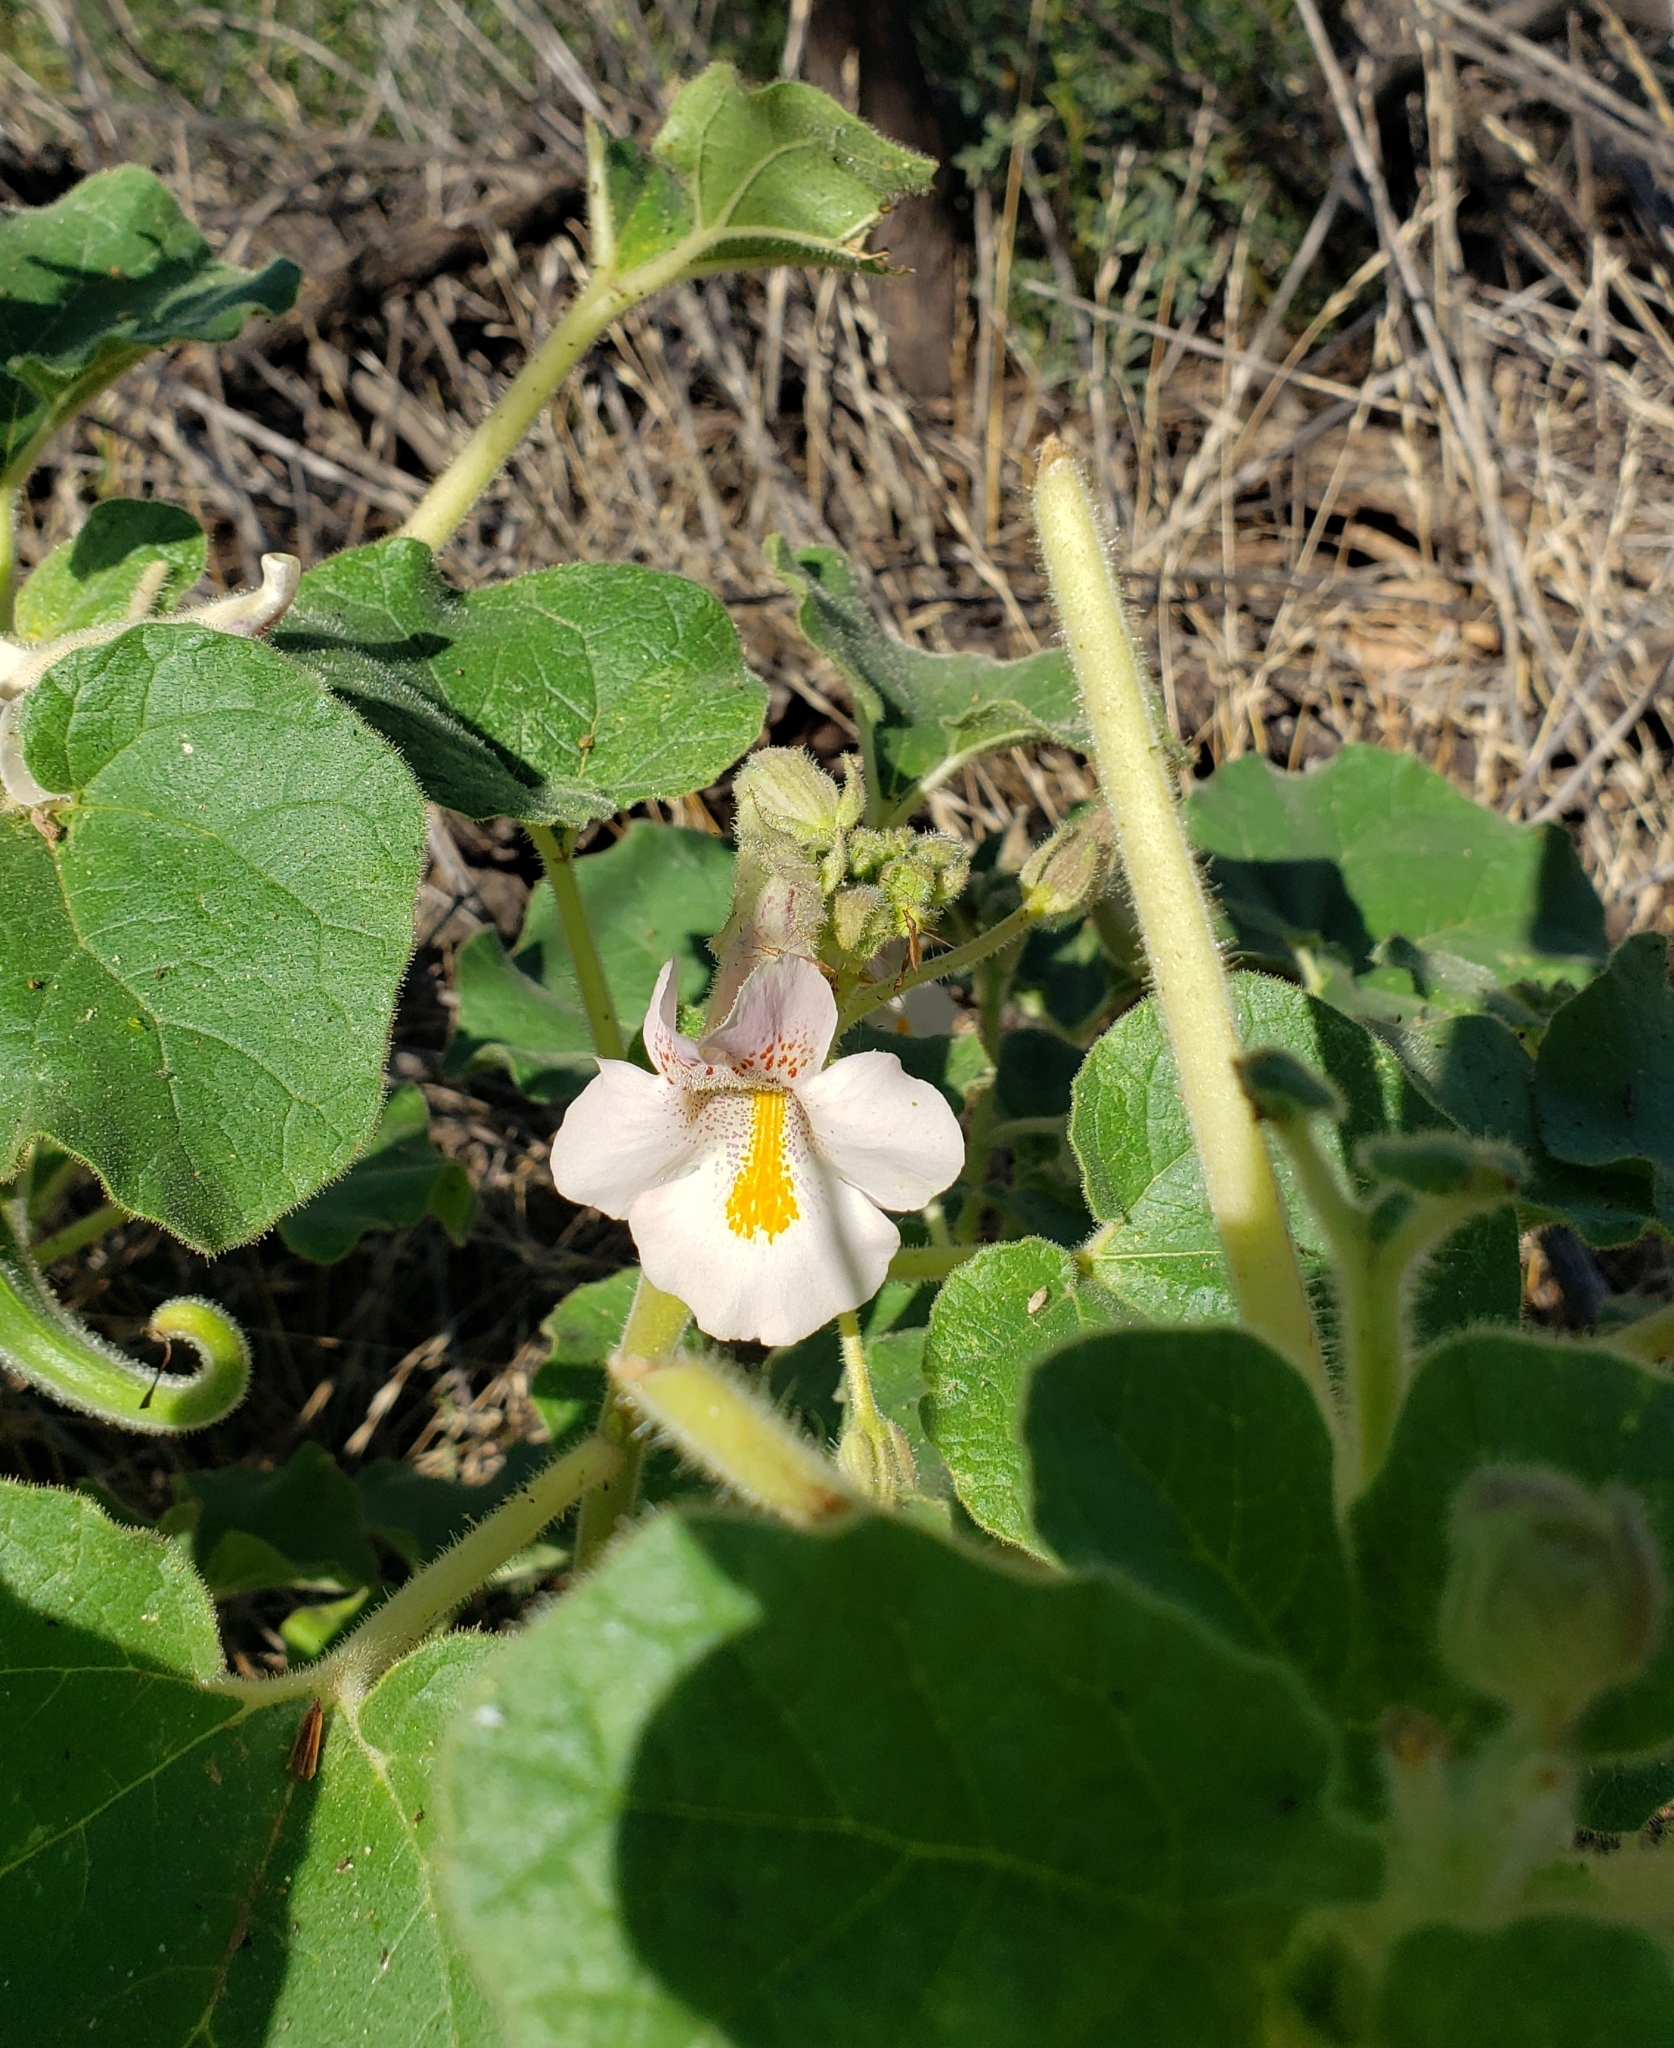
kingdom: Plantae
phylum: Tracheophyta
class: Magnoliopsida
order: Lamiales
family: Martyniaceae
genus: Proboscidea
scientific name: Proboscidea louisianica
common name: Elephant tusks
